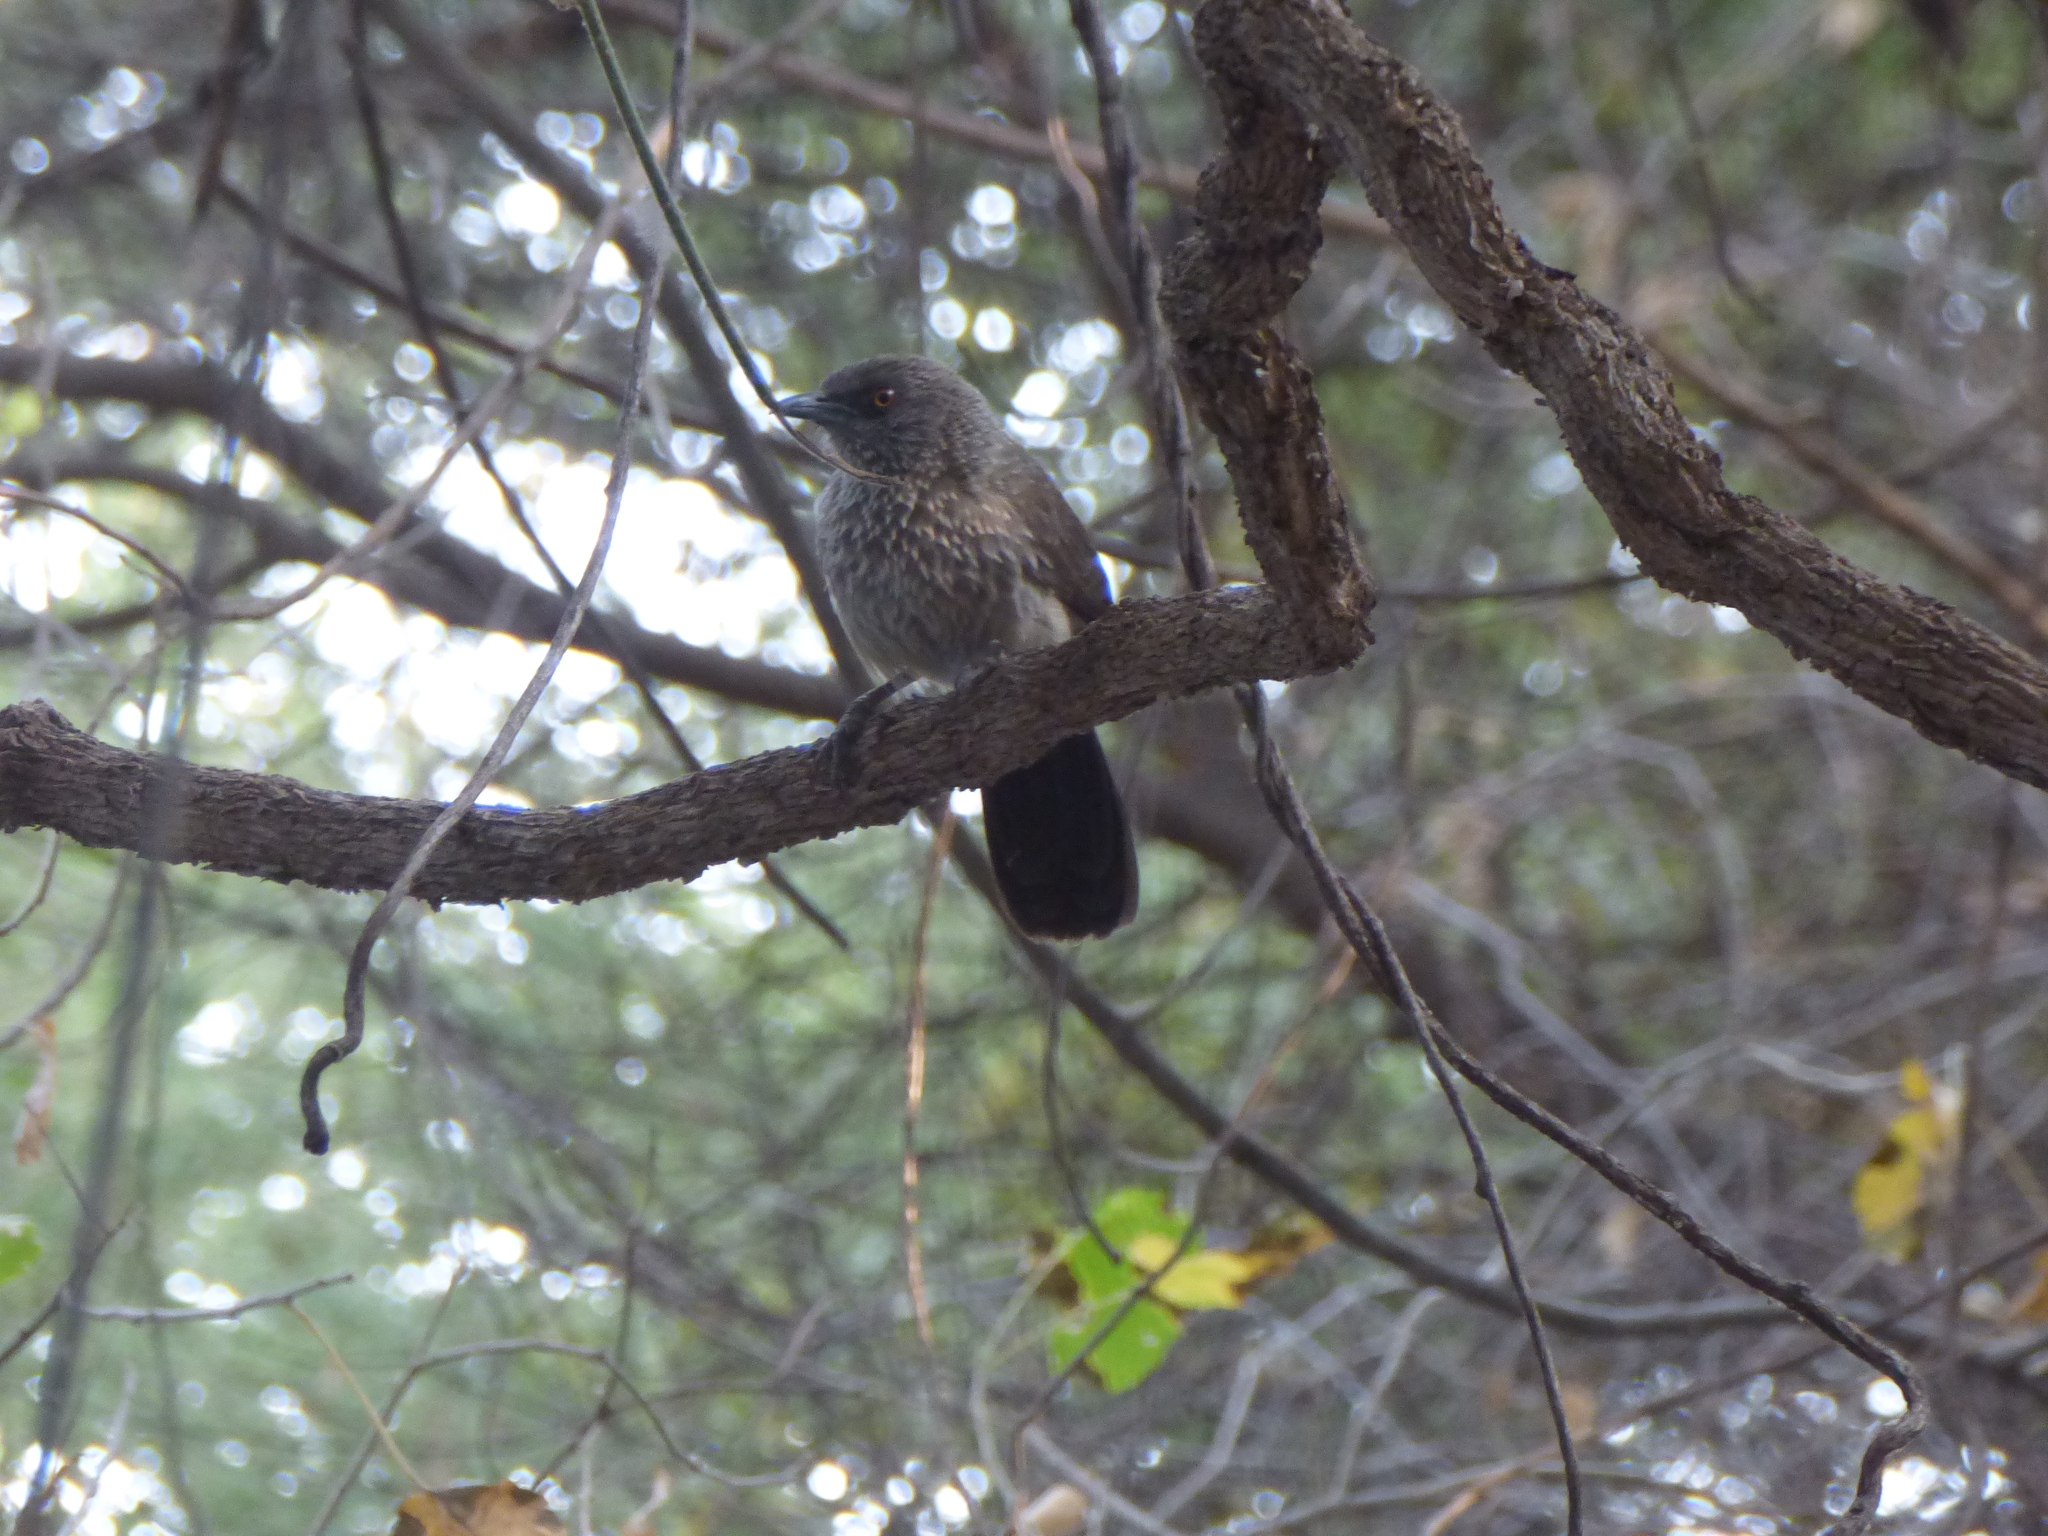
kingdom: Animalia
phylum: Chordata
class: Aves
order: Passeriformes
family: Leiothrichidae
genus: Turdoides
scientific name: Turdoides jardineii
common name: Arrow-marked babbler
